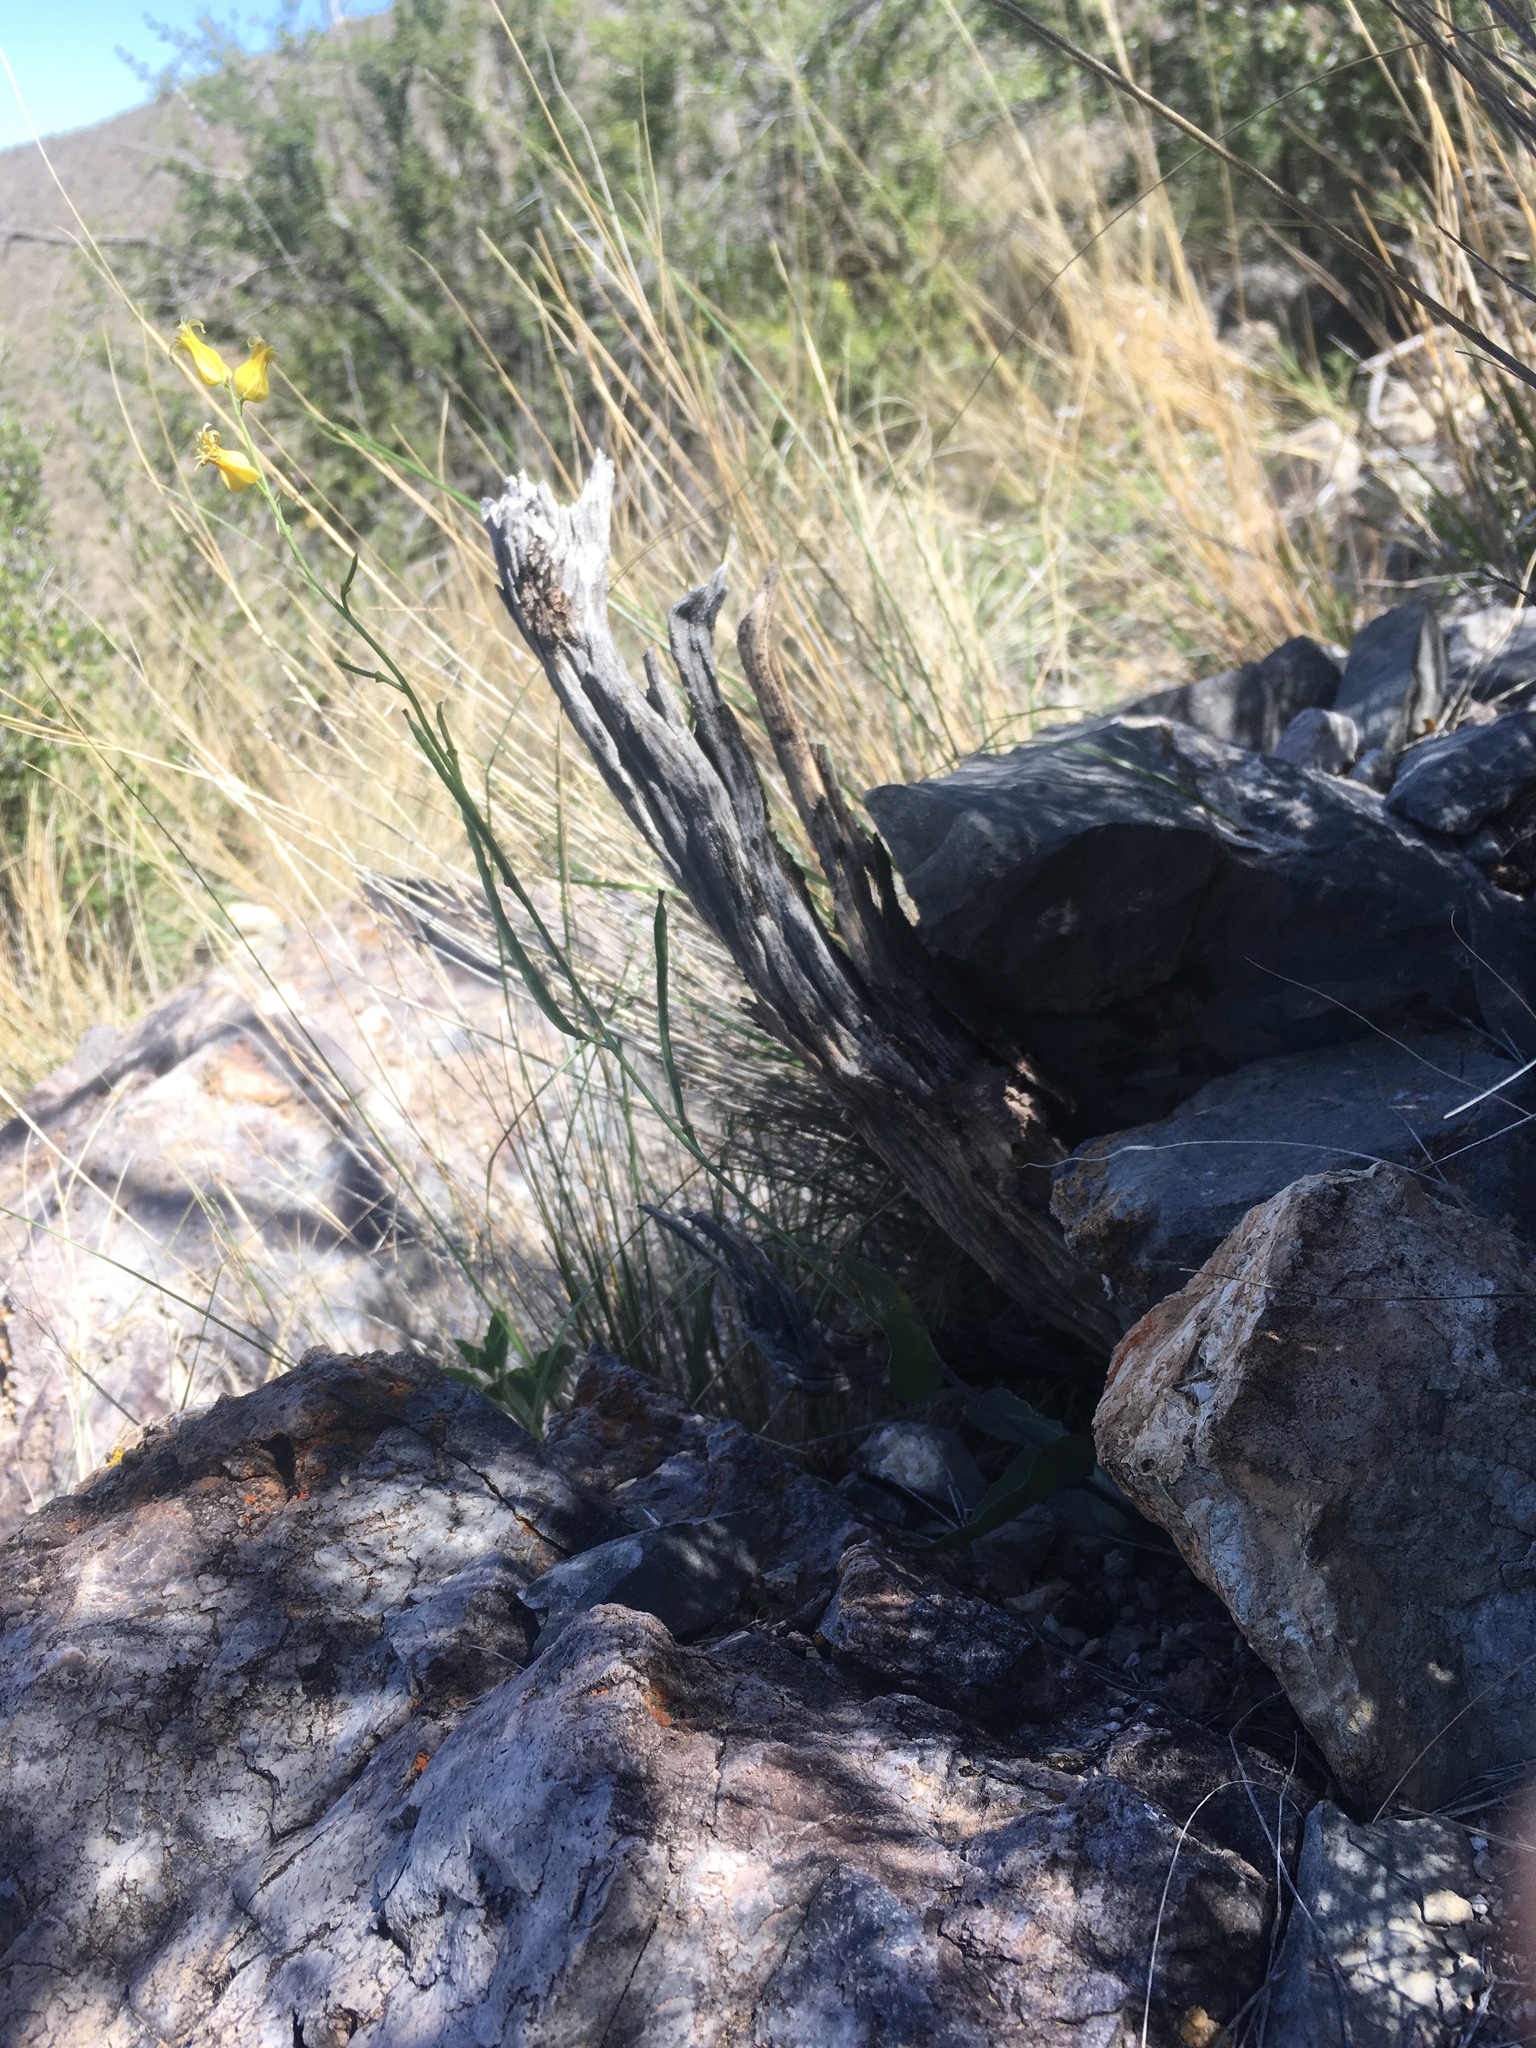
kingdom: Plantae
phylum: Tracheophyta
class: Magnoliopsida
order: Brassicales
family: Brassicaceae
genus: Streptanthus
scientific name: Streptanthus carinatus
